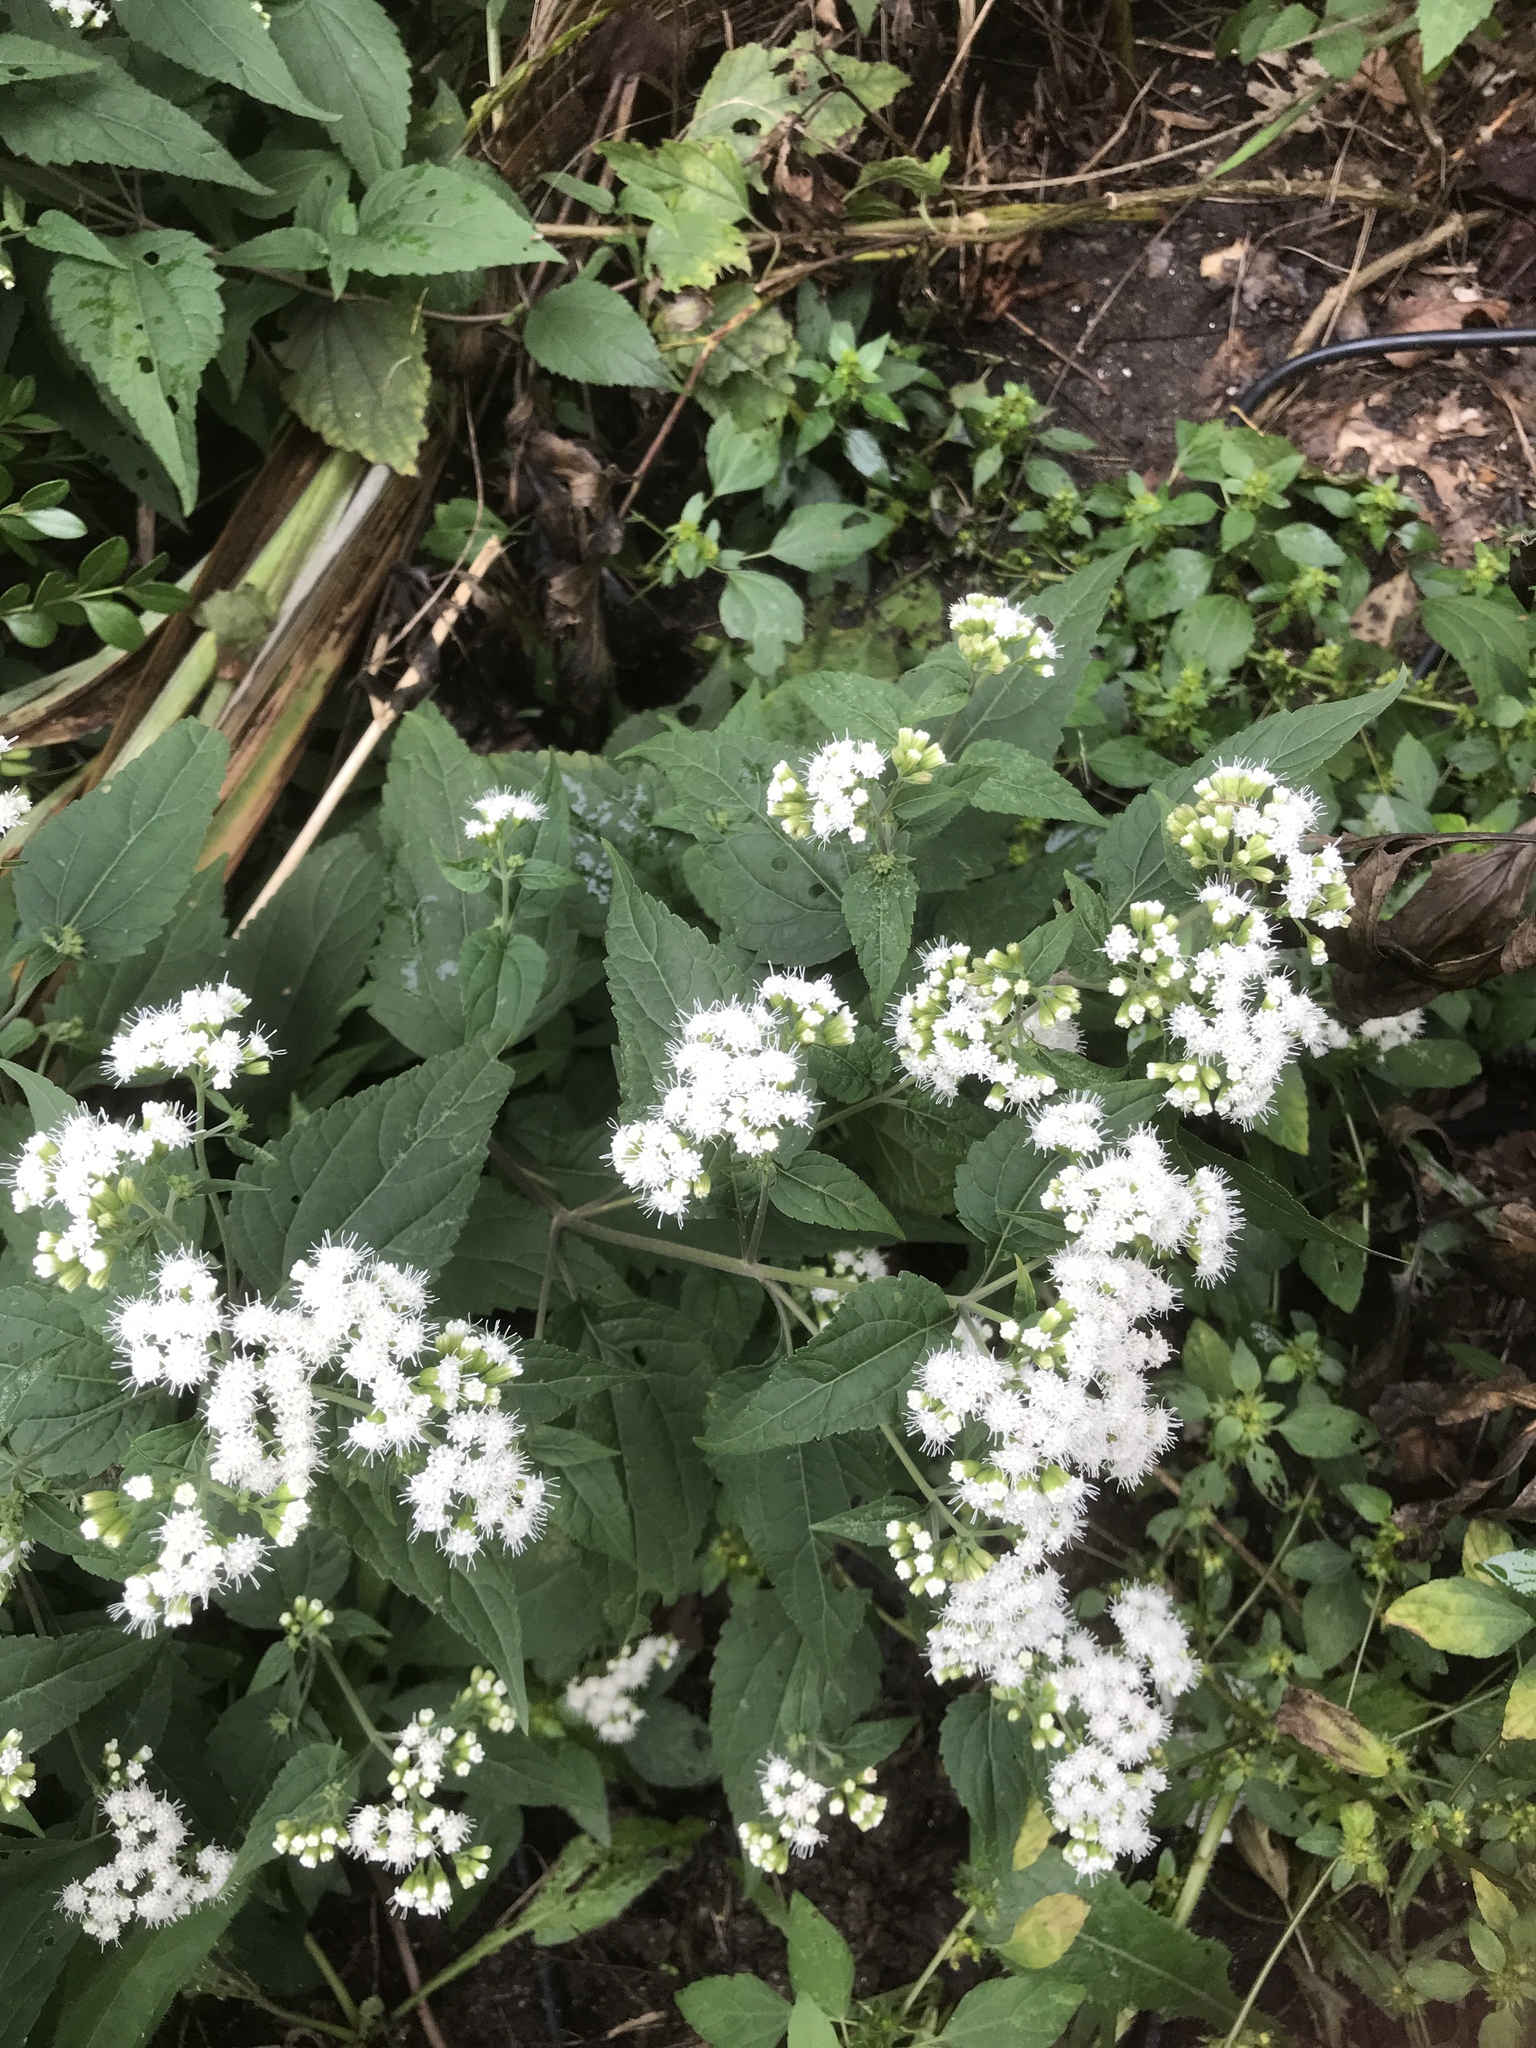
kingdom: Plantae
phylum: Tracheophyta
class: Magnoliopsida
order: Asterales
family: Asteraceae
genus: Ageratina
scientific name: Ageratina altissima
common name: White snakeroot
